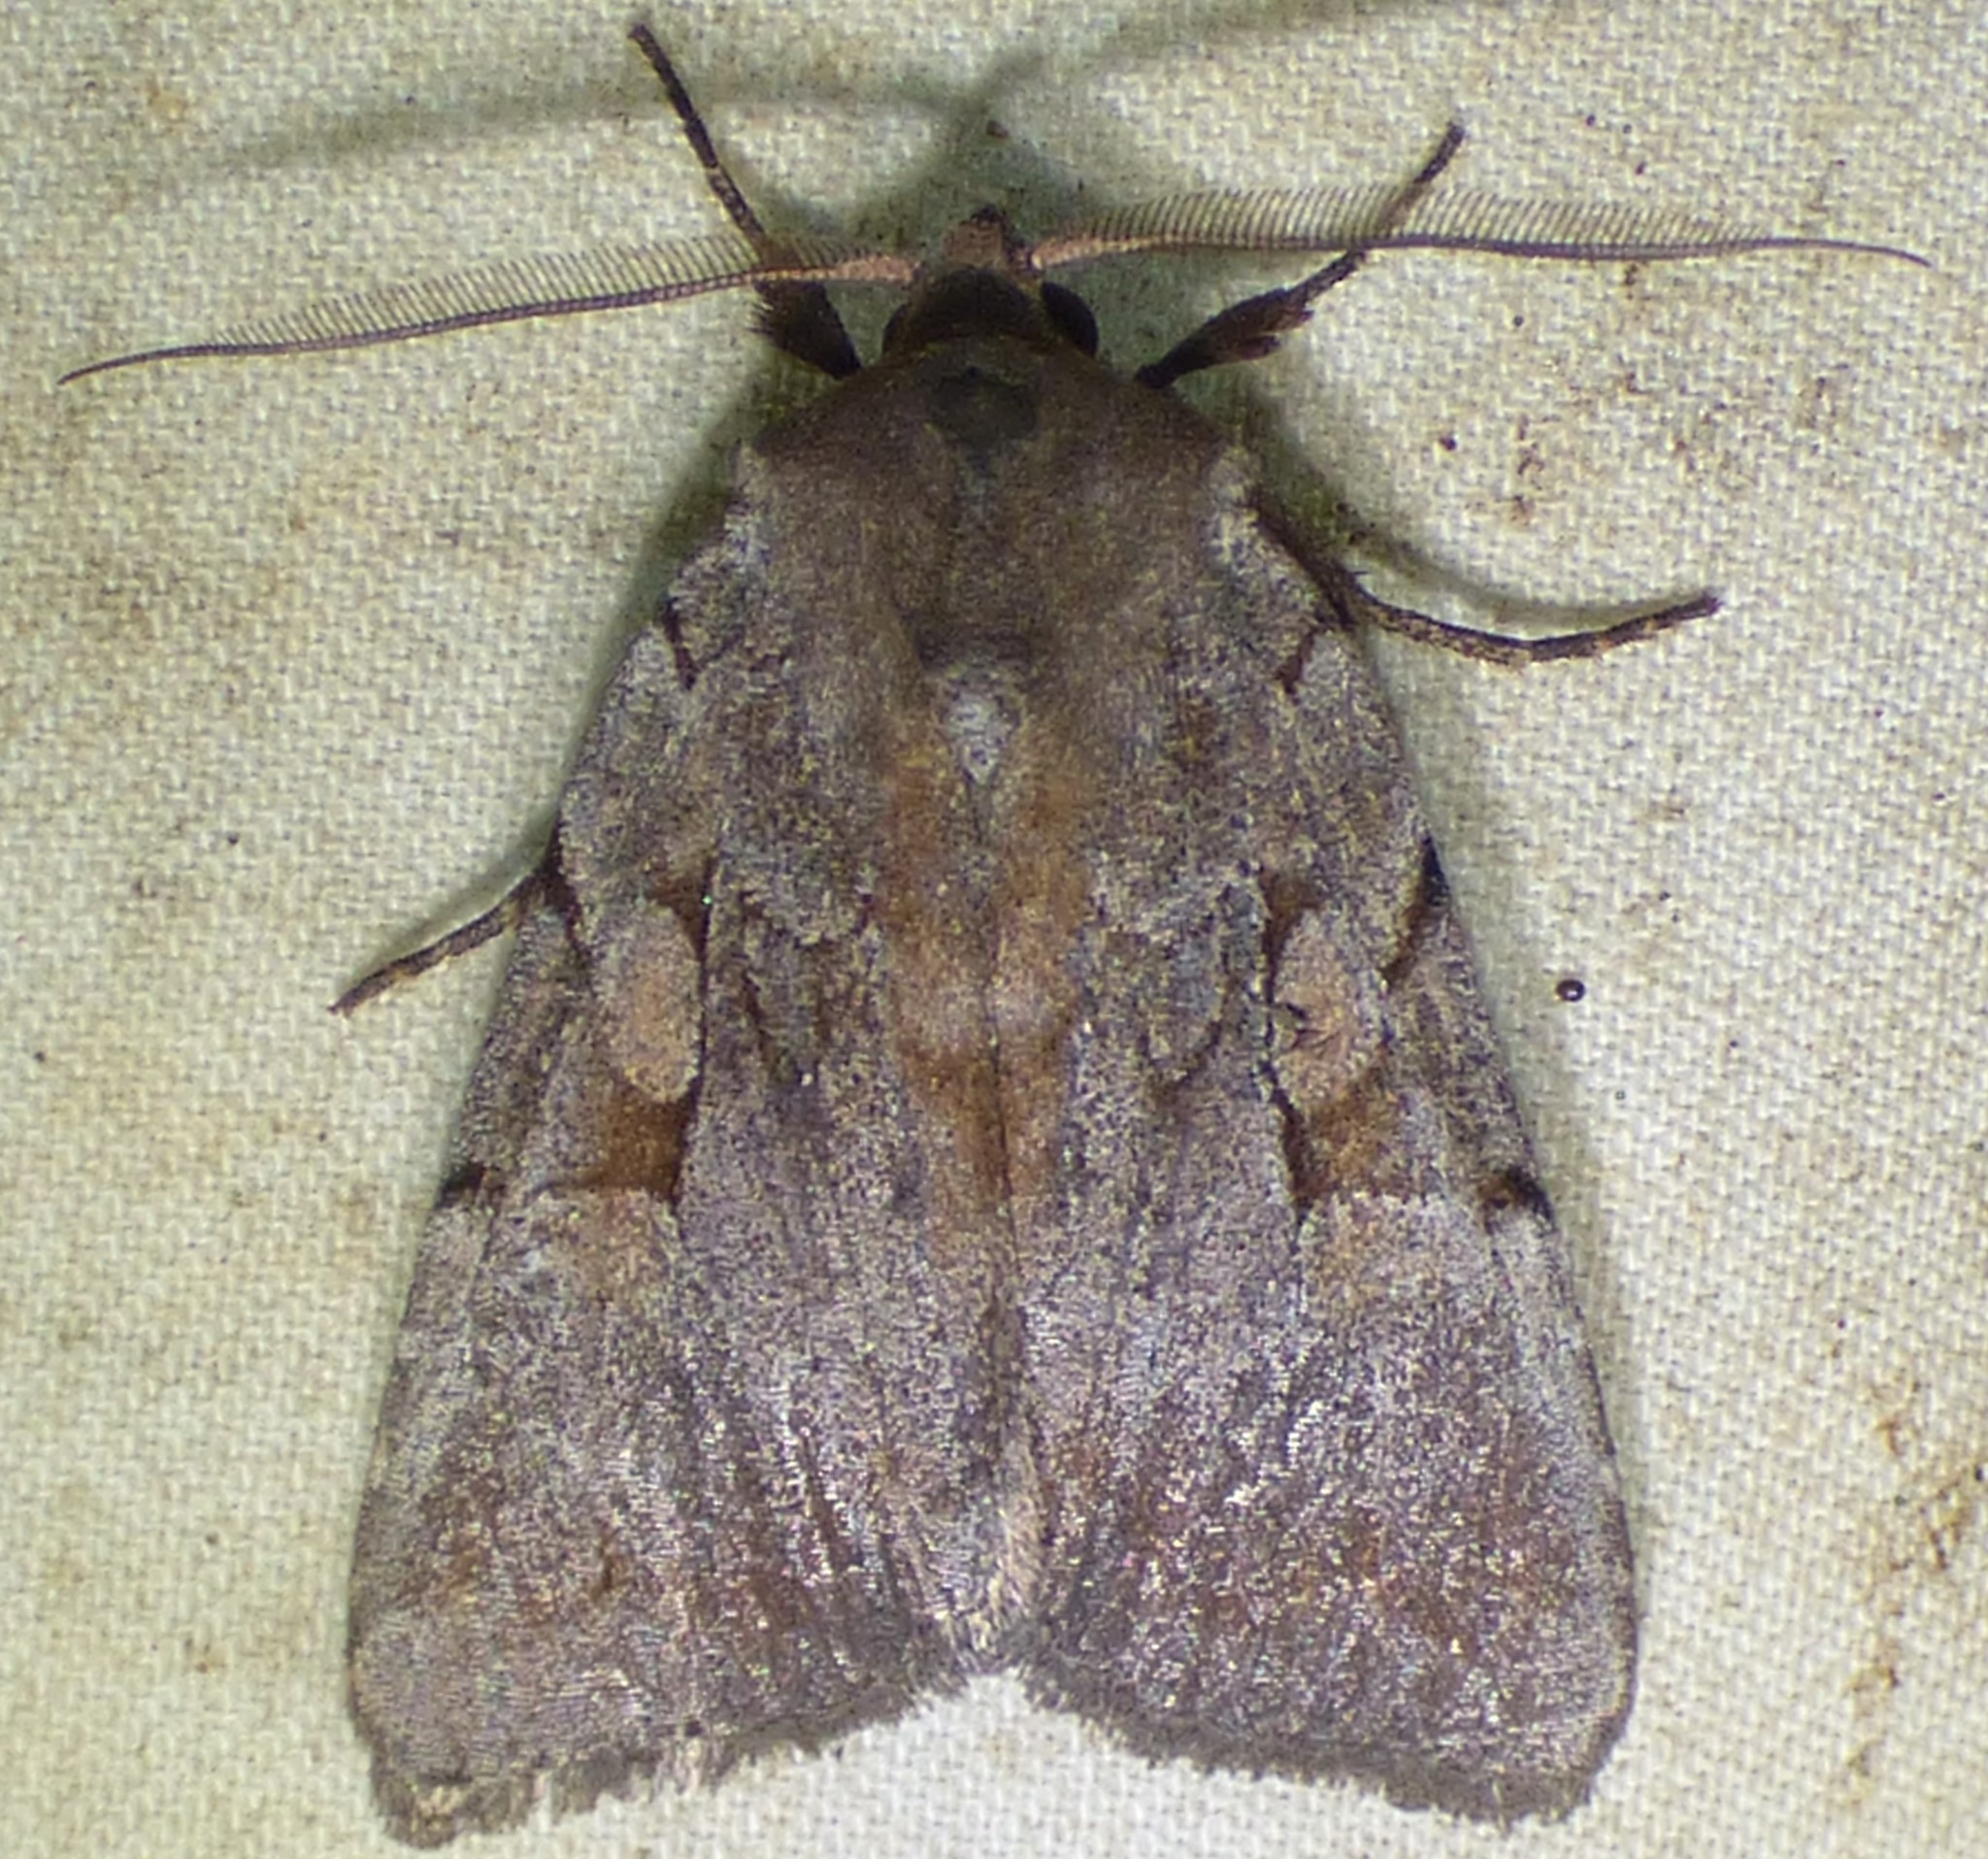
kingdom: Animalia
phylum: Arthropoda
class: Insecta
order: Lepidoptera
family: Noctuidae
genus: Xestia
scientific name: Xestia elimata
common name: Chameleon caterpillar
